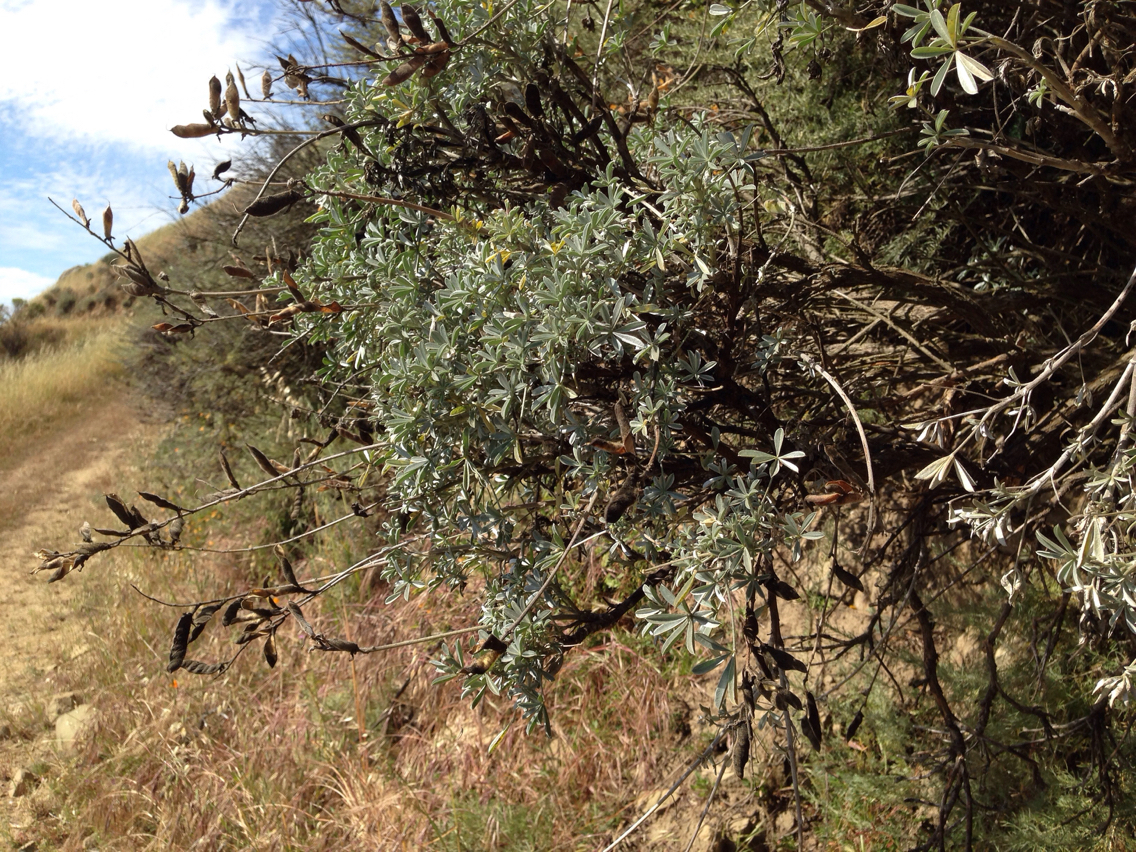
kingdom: Plantae
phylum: Tracheophyta
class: Magnoliopsida
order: Fabales
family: Fabaceae
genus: Lupinus
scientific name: Lupinus albifrons
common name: Foothill lupine
